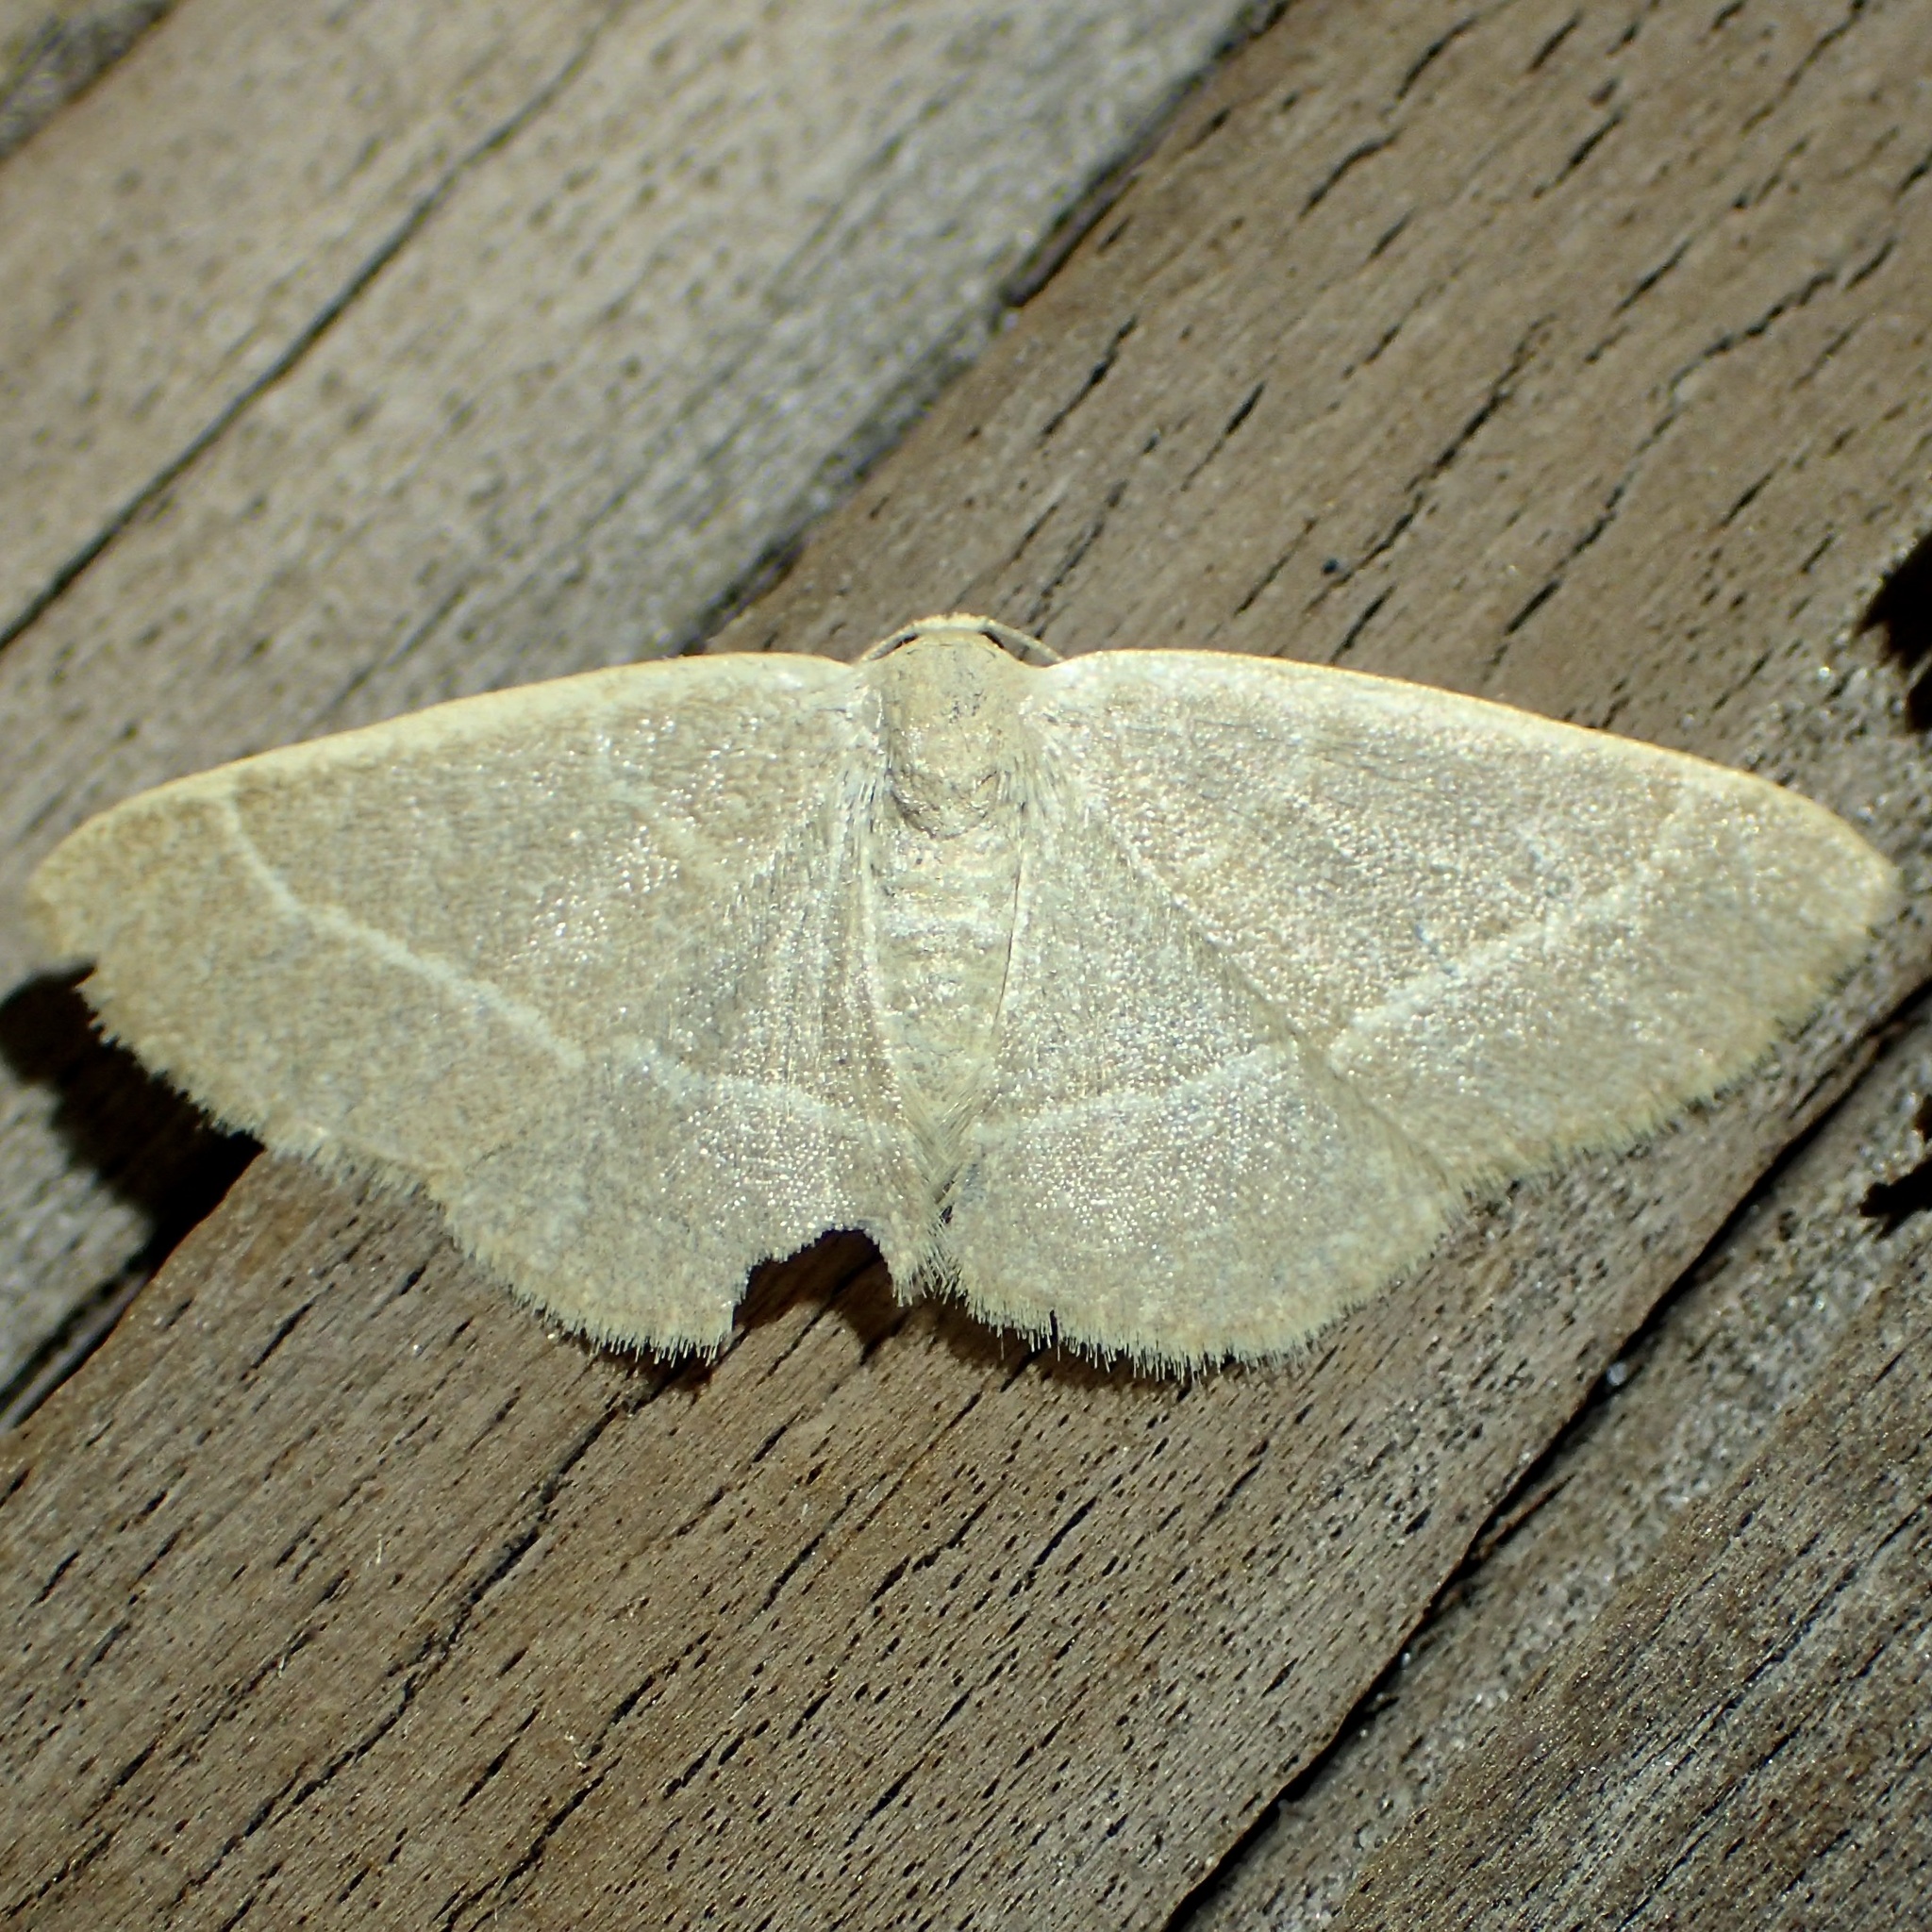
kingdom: Animalia
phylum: Arthropoda
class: Insecta
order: Lepidoptera
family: Geometridae
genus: Sperrya
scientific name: Sperrya cervula
